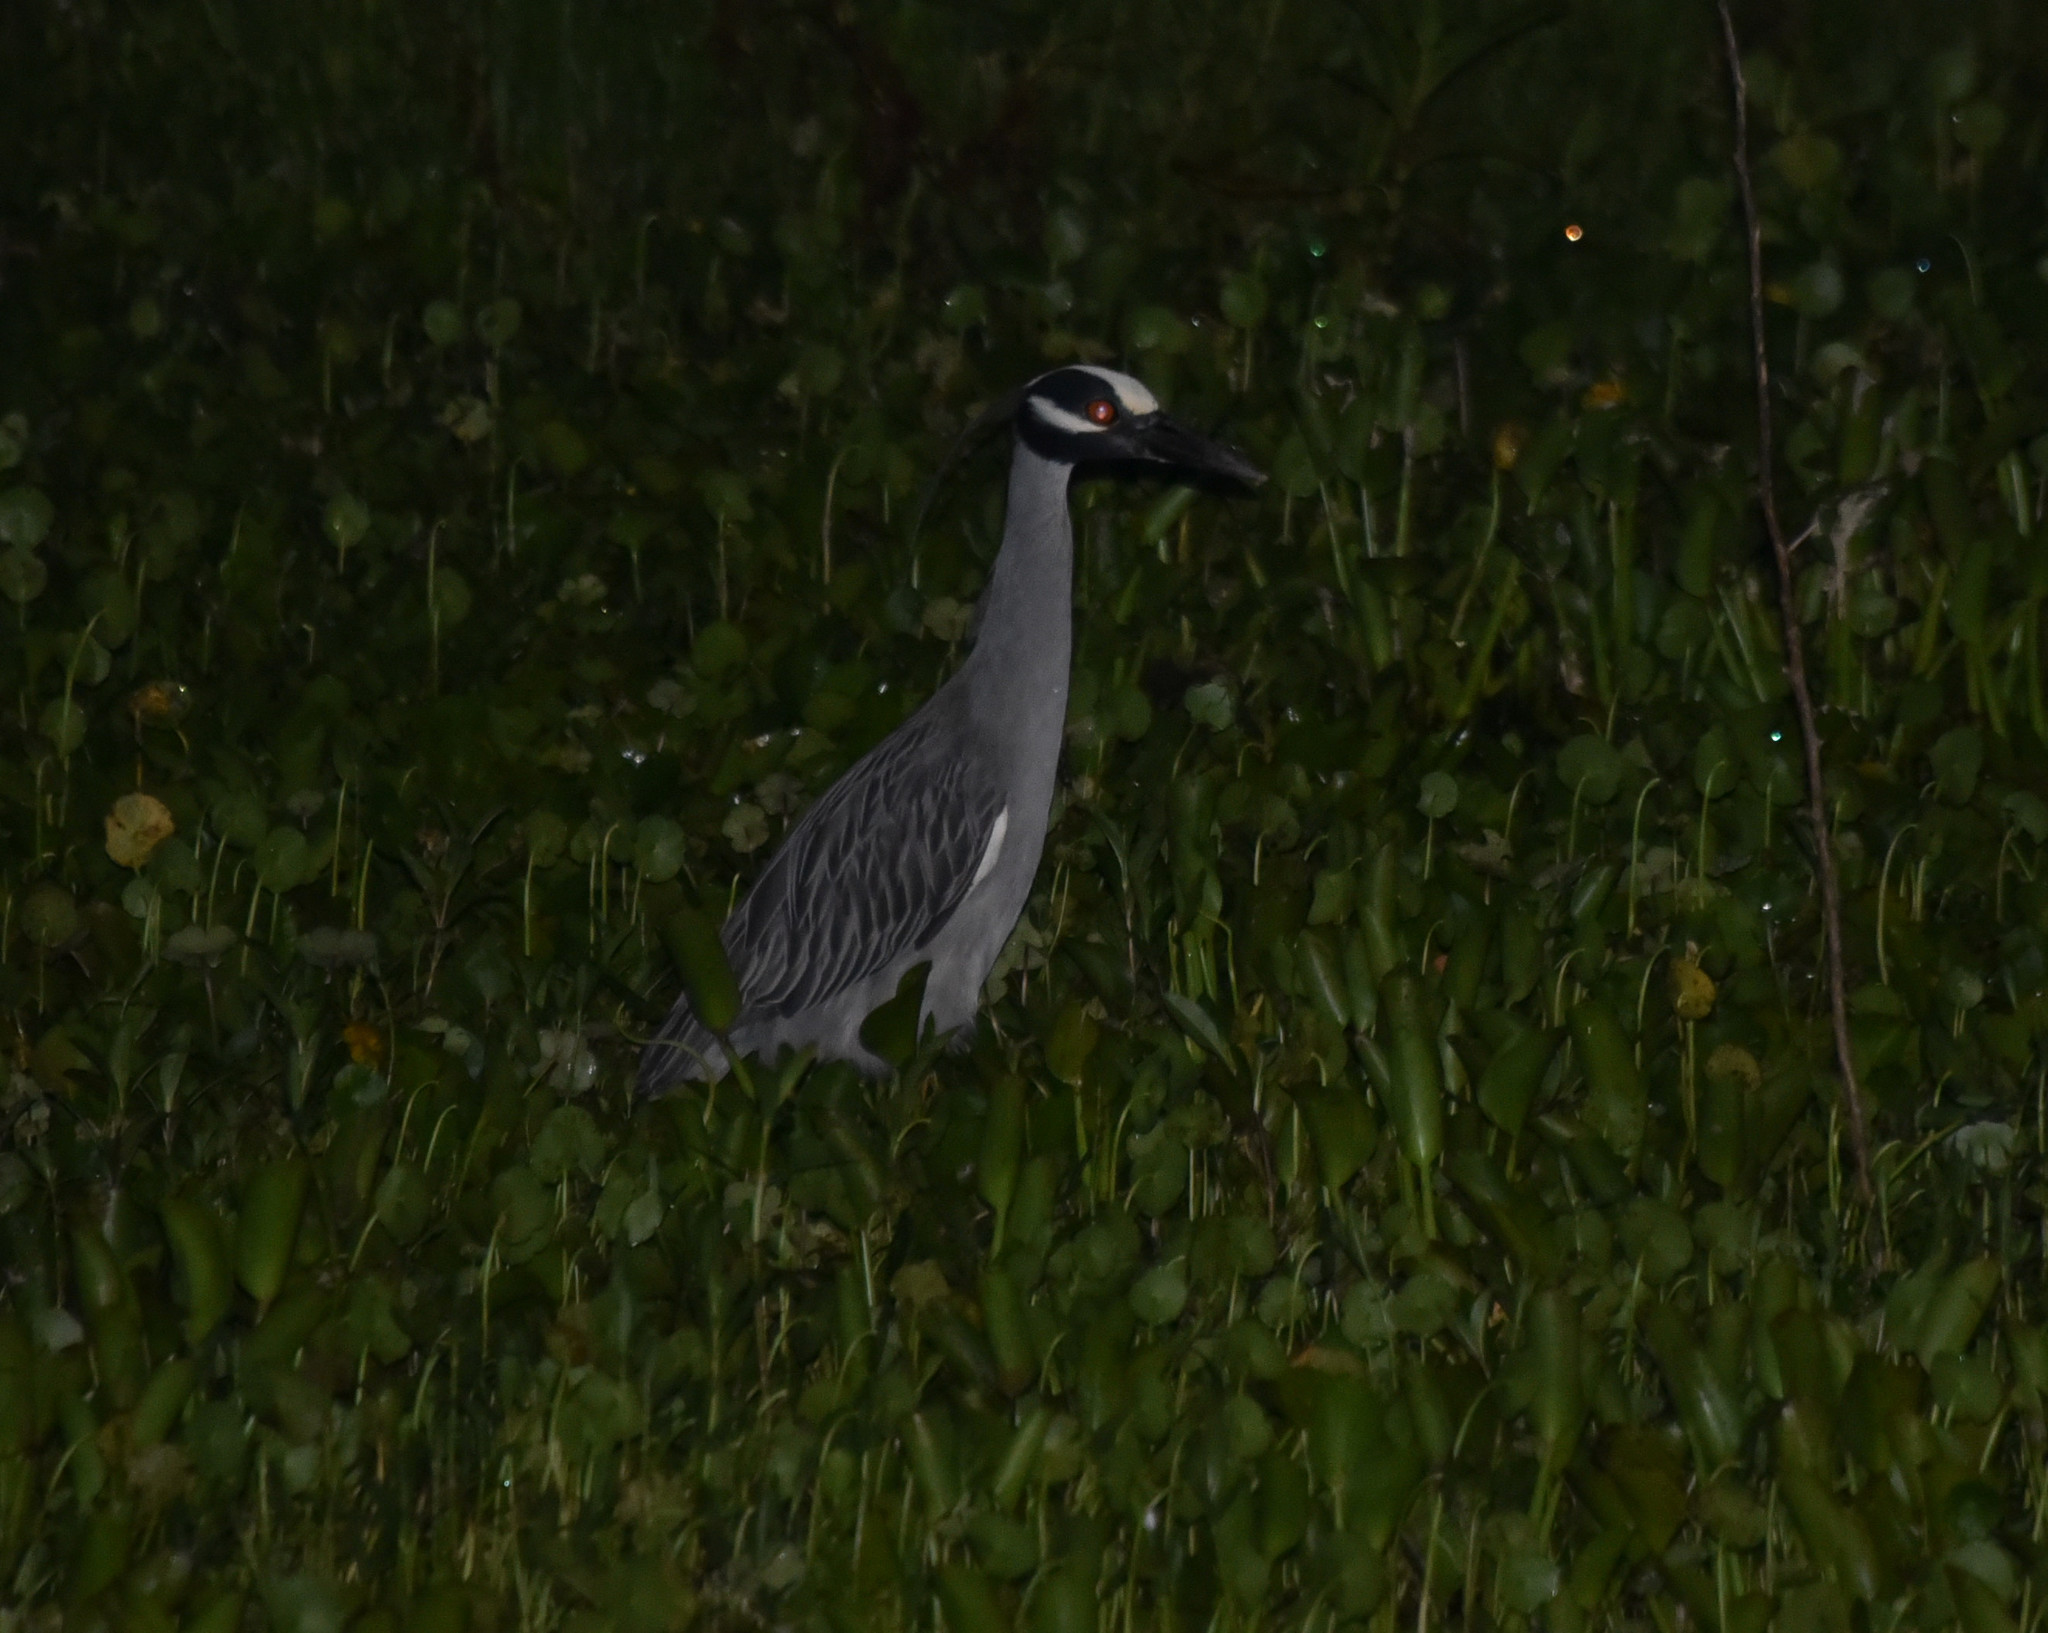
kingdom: Animalia
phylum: Chordata
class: Aves
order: Pelecaniformes
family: Ardeidae
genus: Nyctanassa
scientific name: Nyctanassa violacea
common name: Yellow-crowned night heron
